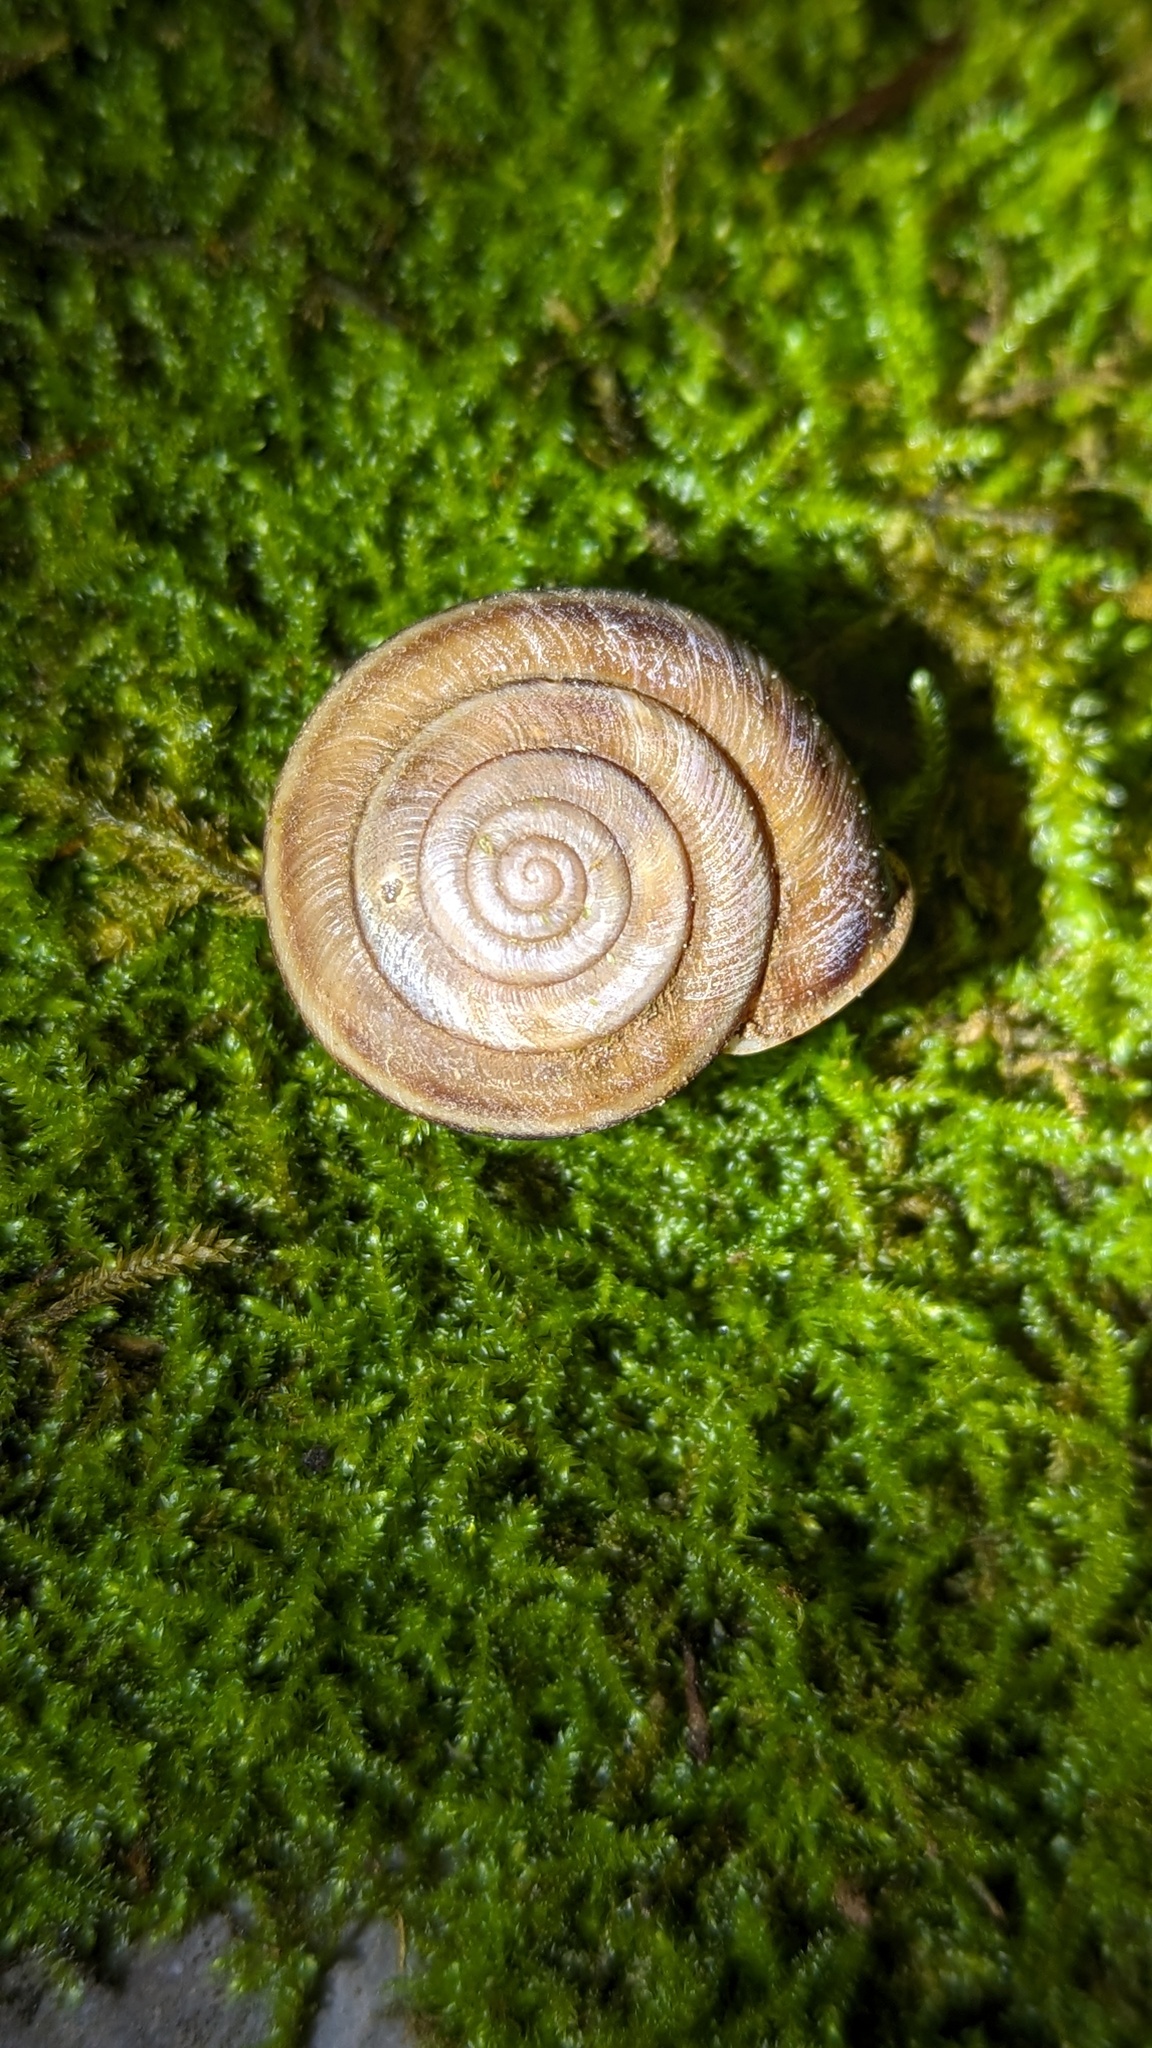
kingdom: Animalia
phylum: Mollusca
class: Gastropoda
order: Stylommatophora
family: Xanthonychidae
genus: Monadenia
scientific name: Monadenia troglodytes
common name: Shasta sideband
